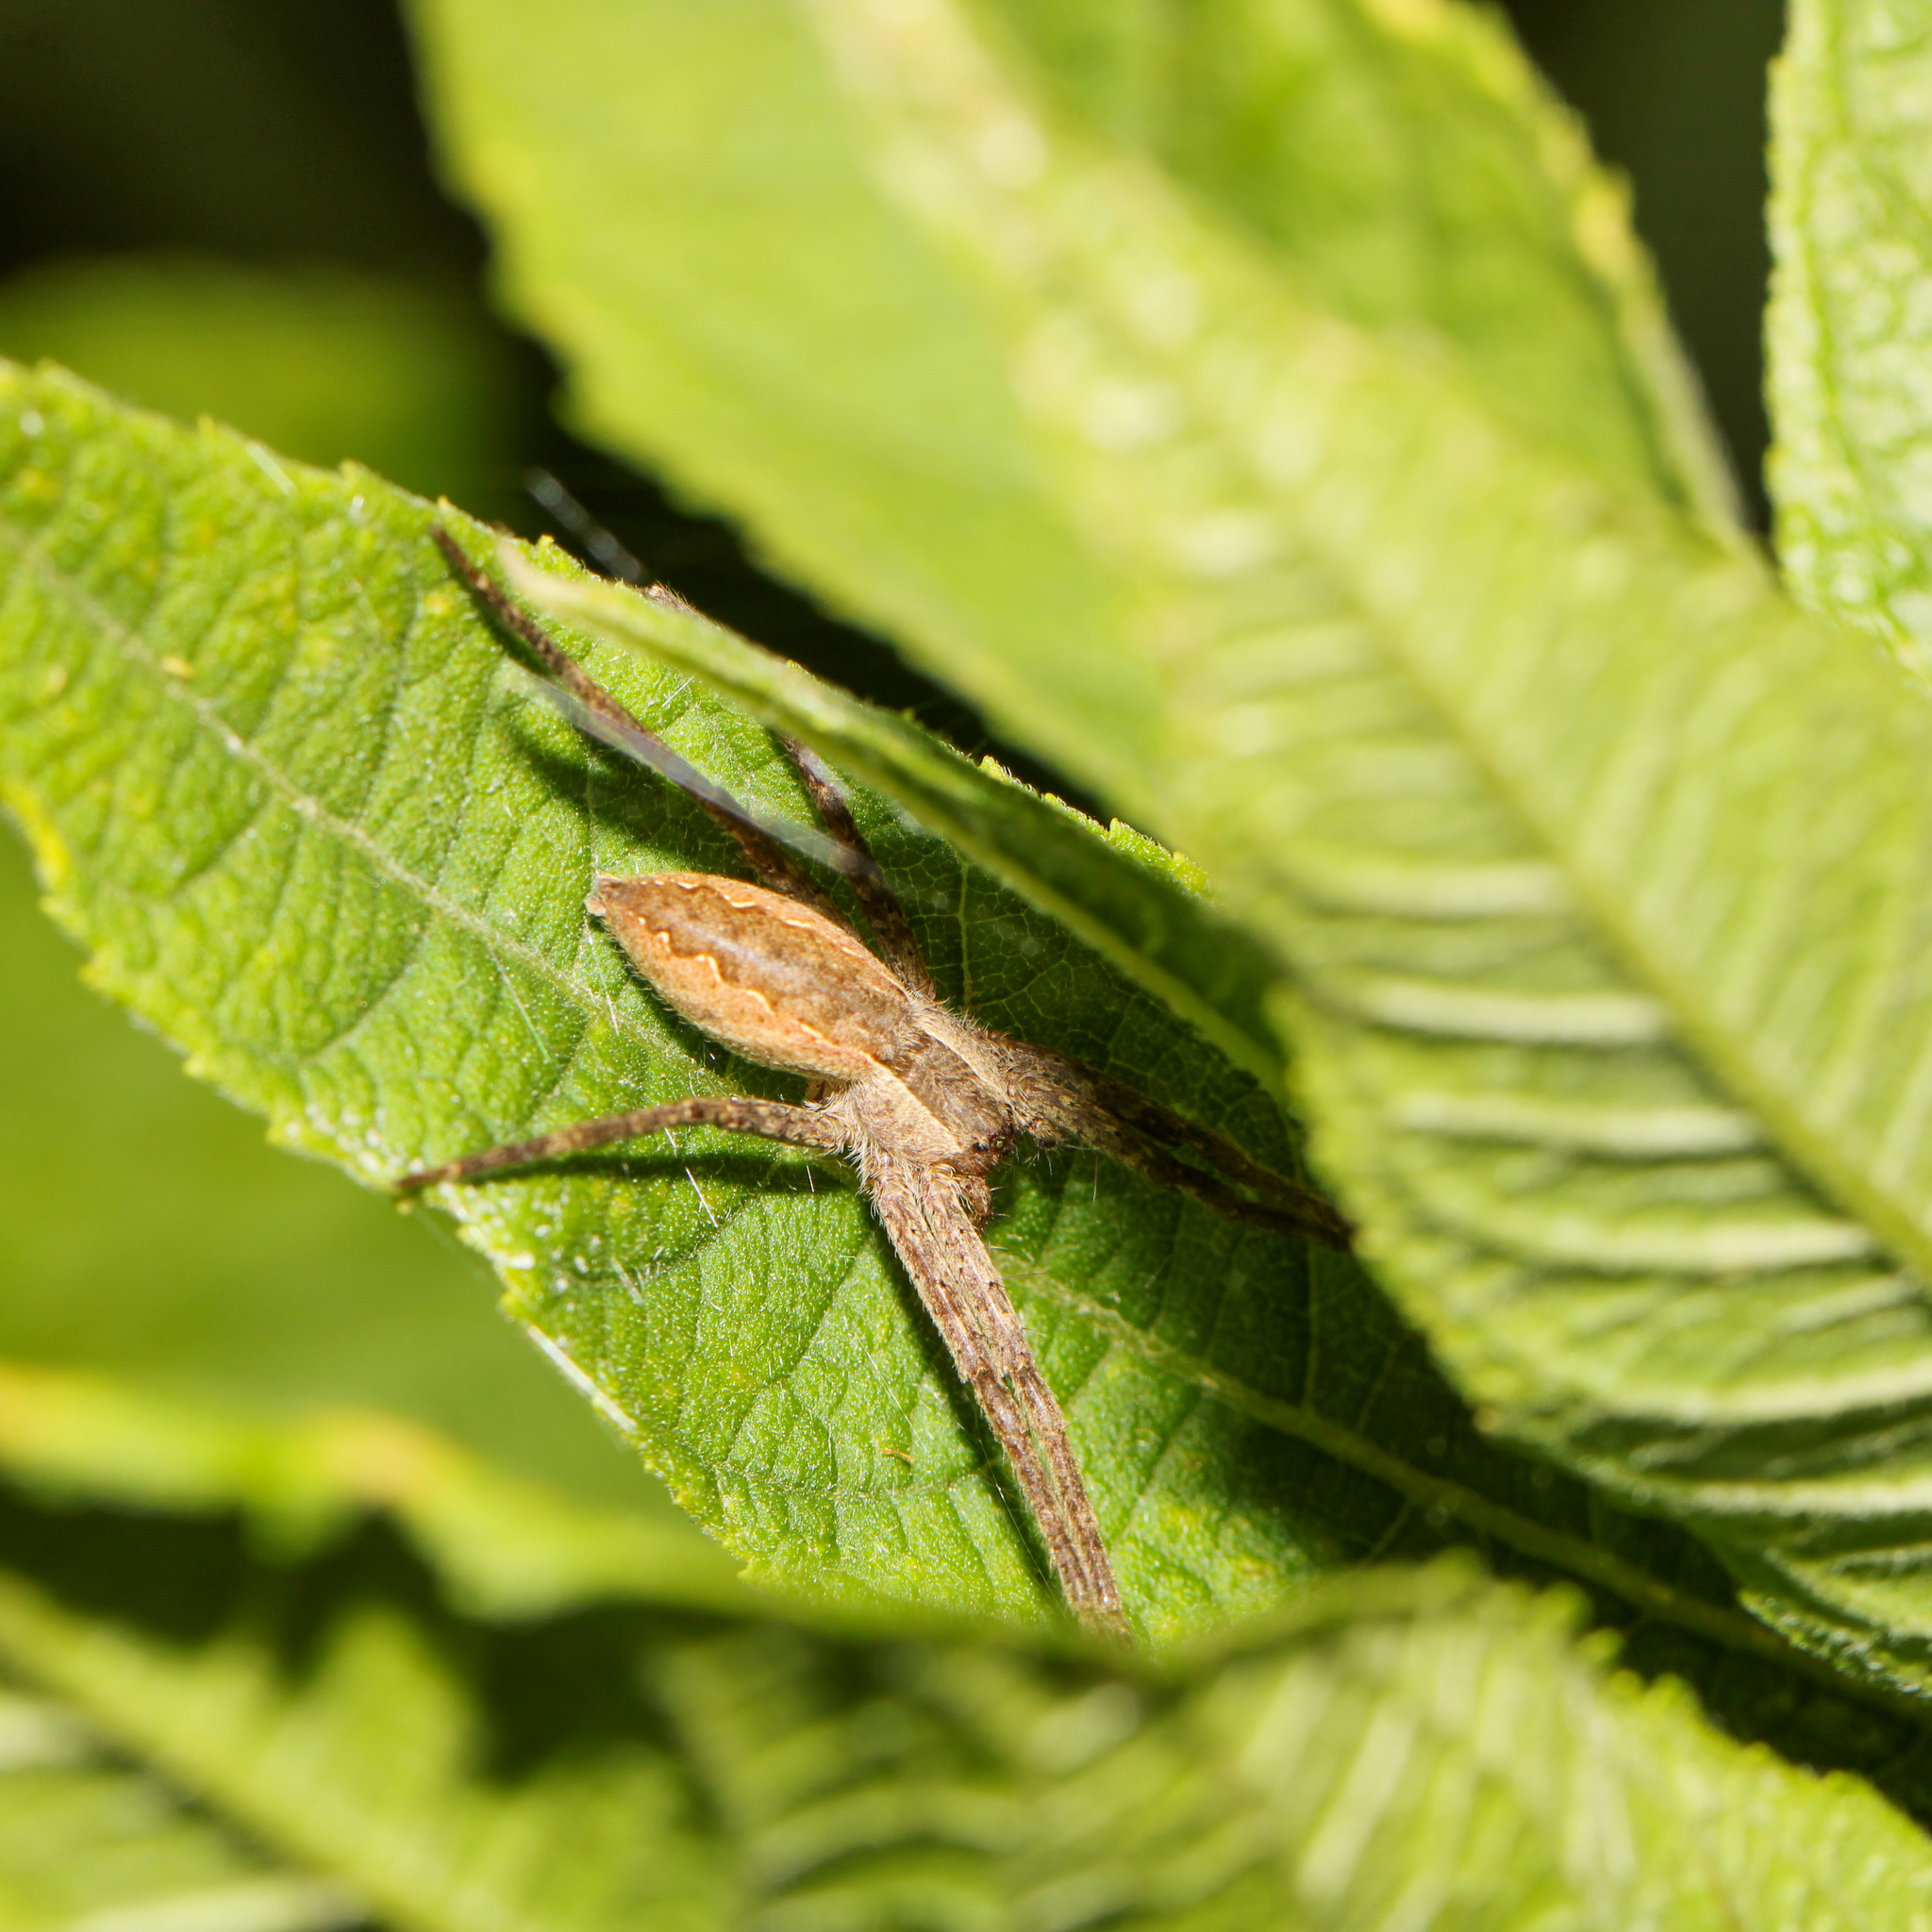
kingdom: Animalia
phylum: Arthropoda
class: Arachnida
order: Araneae
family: Pisauridae
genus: Pisaurina
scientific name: Pisaurina mira
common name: American nursery web spider
